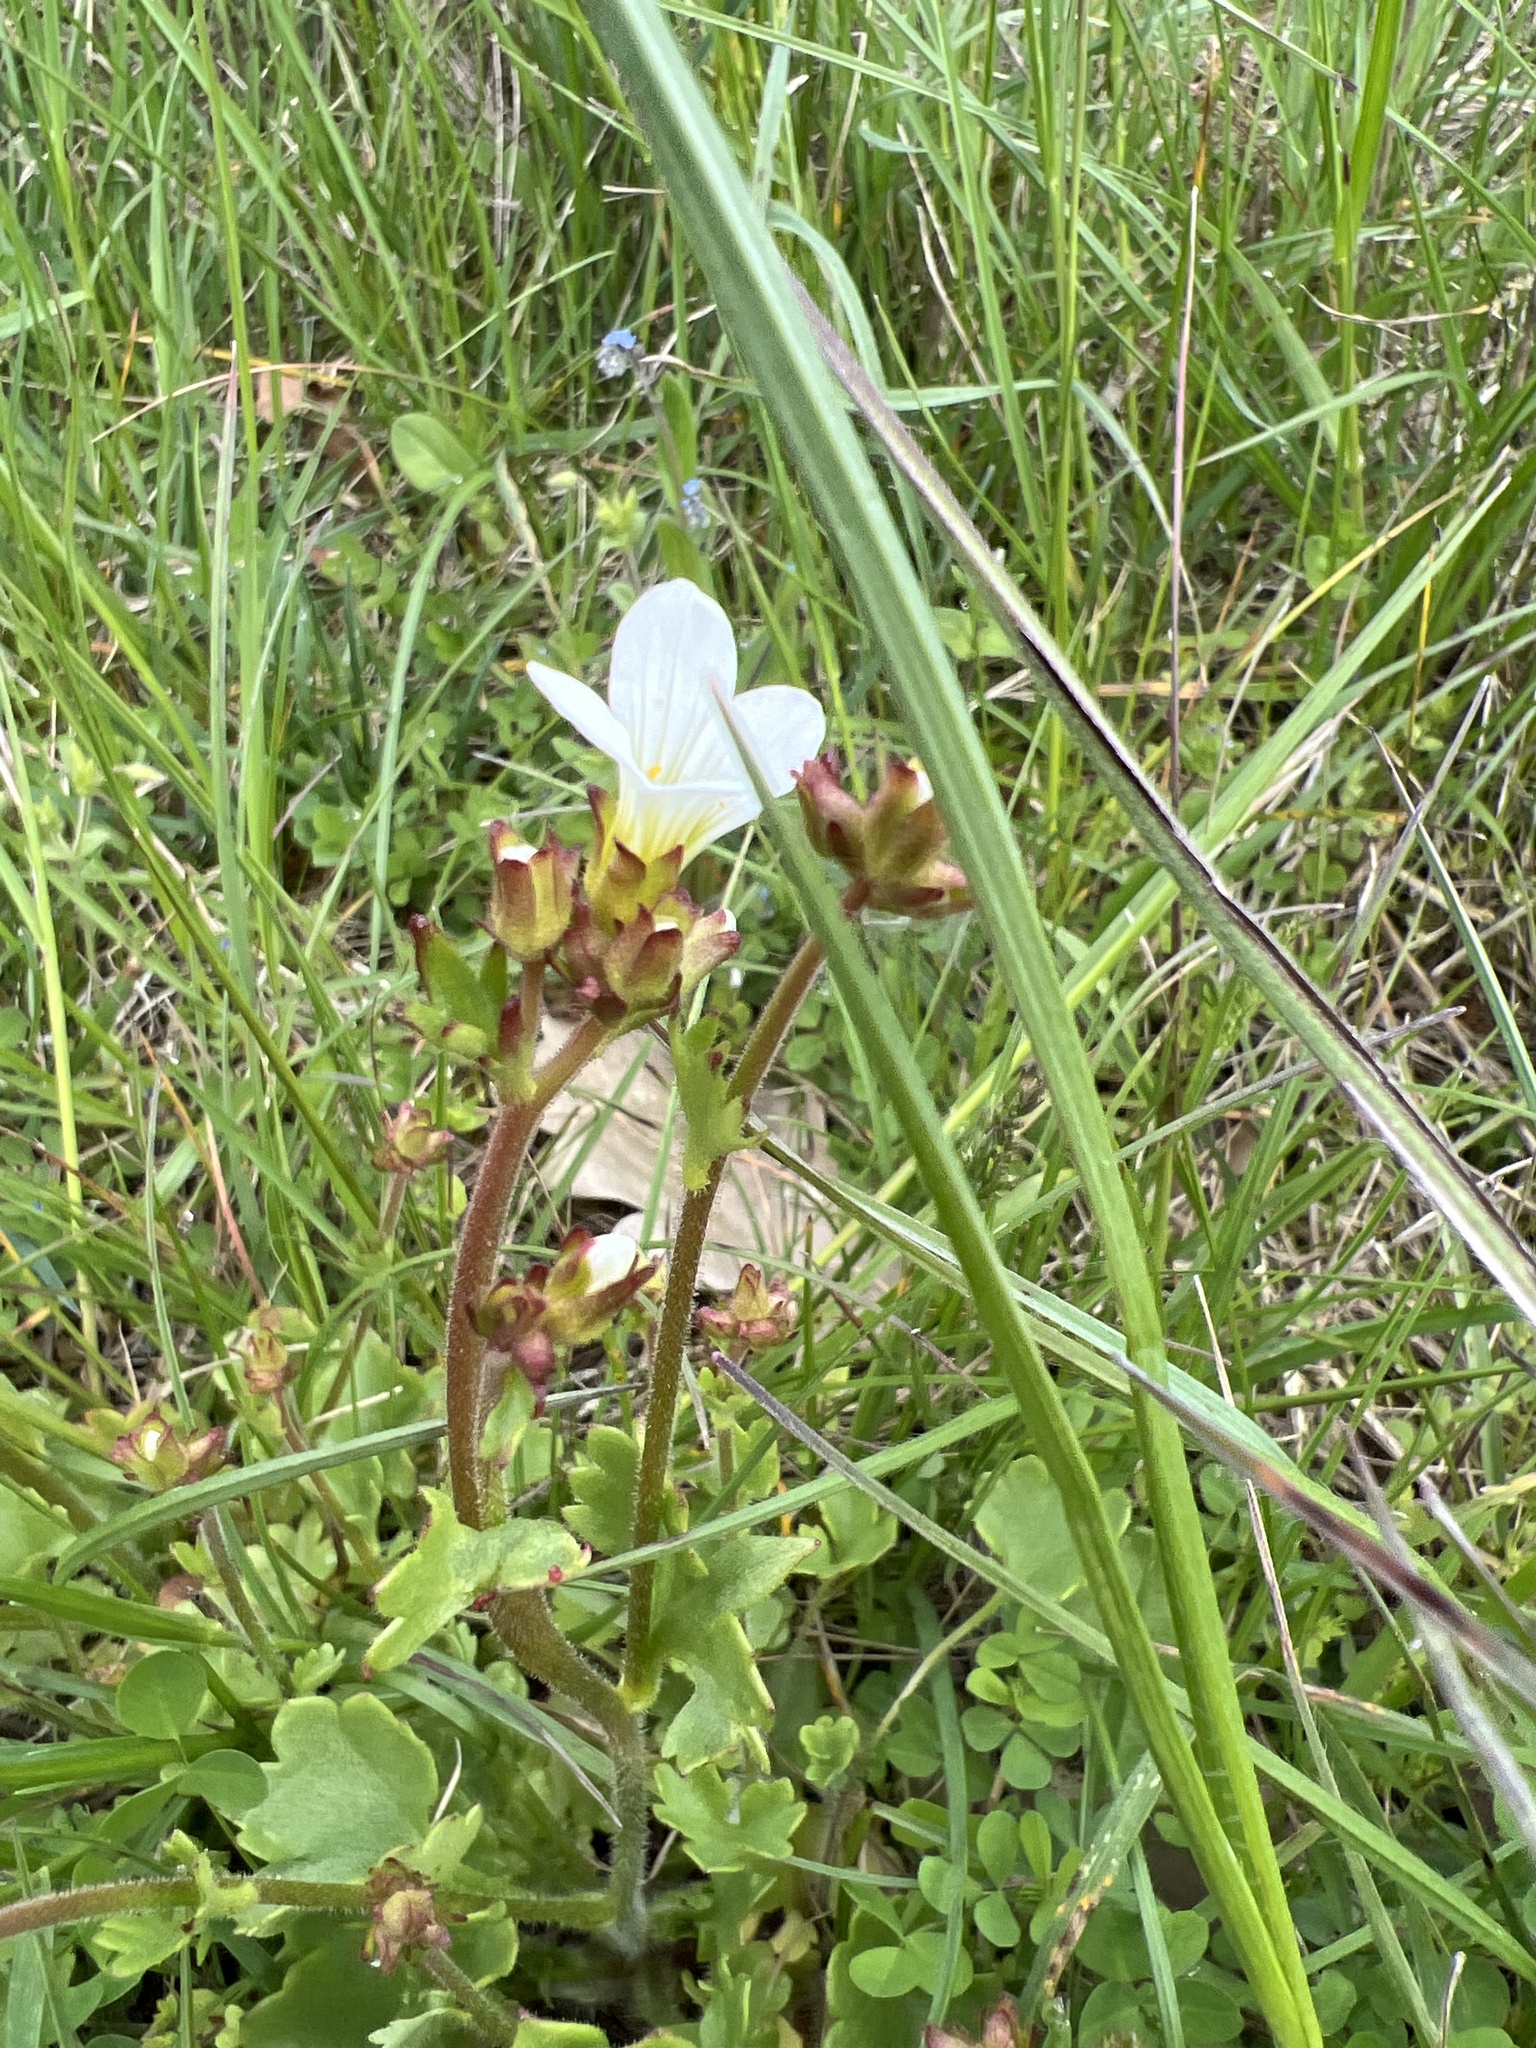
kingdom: Plantae
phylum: Tracheophyta
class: Magnoliopsida
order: Saxifragales
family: Saxifragaceae
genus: Saxifraga
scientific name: Saxifraga granulata
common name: Meadow saxifrage
